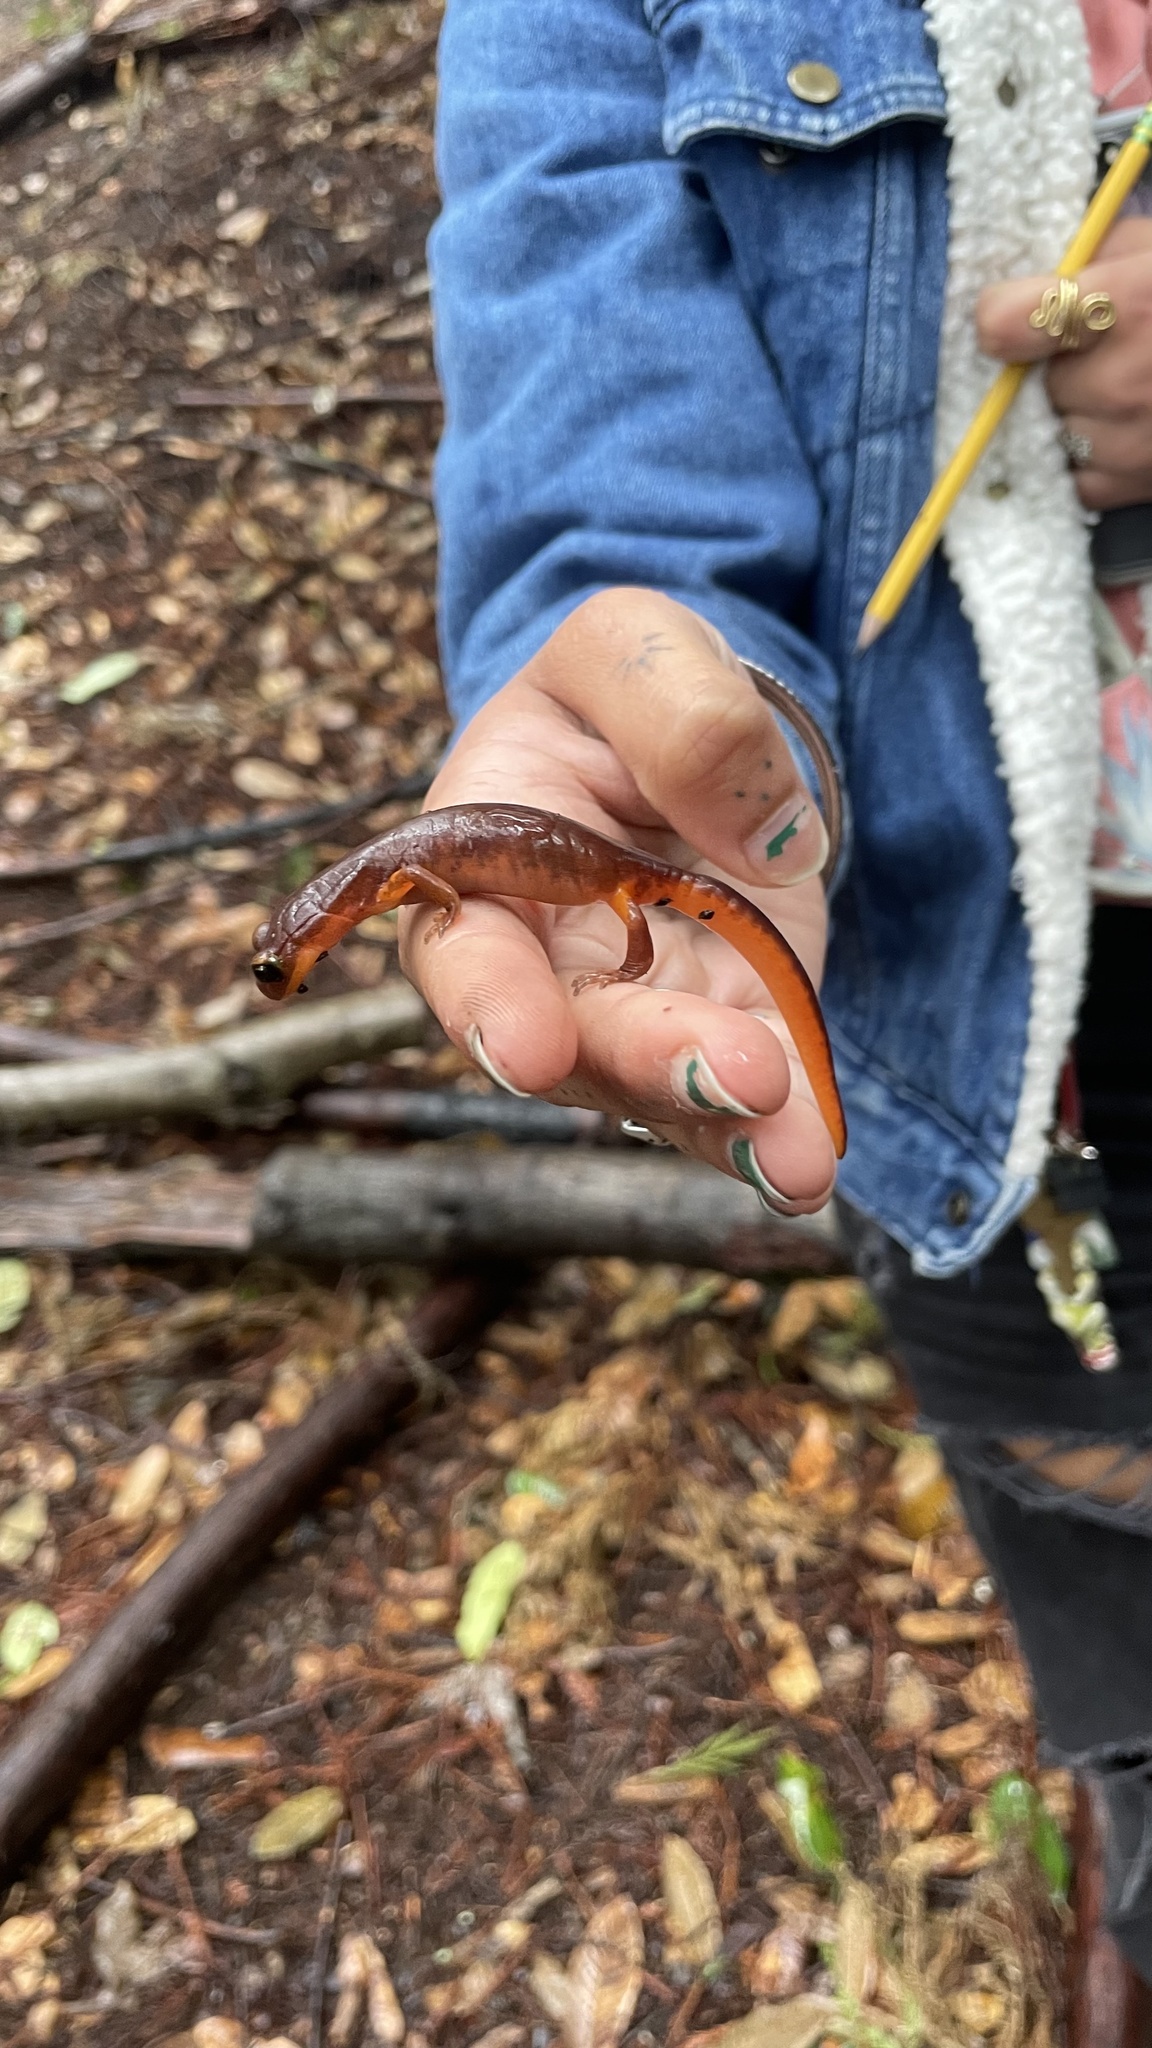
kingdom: Animalia
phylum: Chordata
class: Amphibia
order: Caudata
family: Plethodontidae
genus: Ensatina
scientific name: Ensatina eschscholtzii
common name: Ensatina
